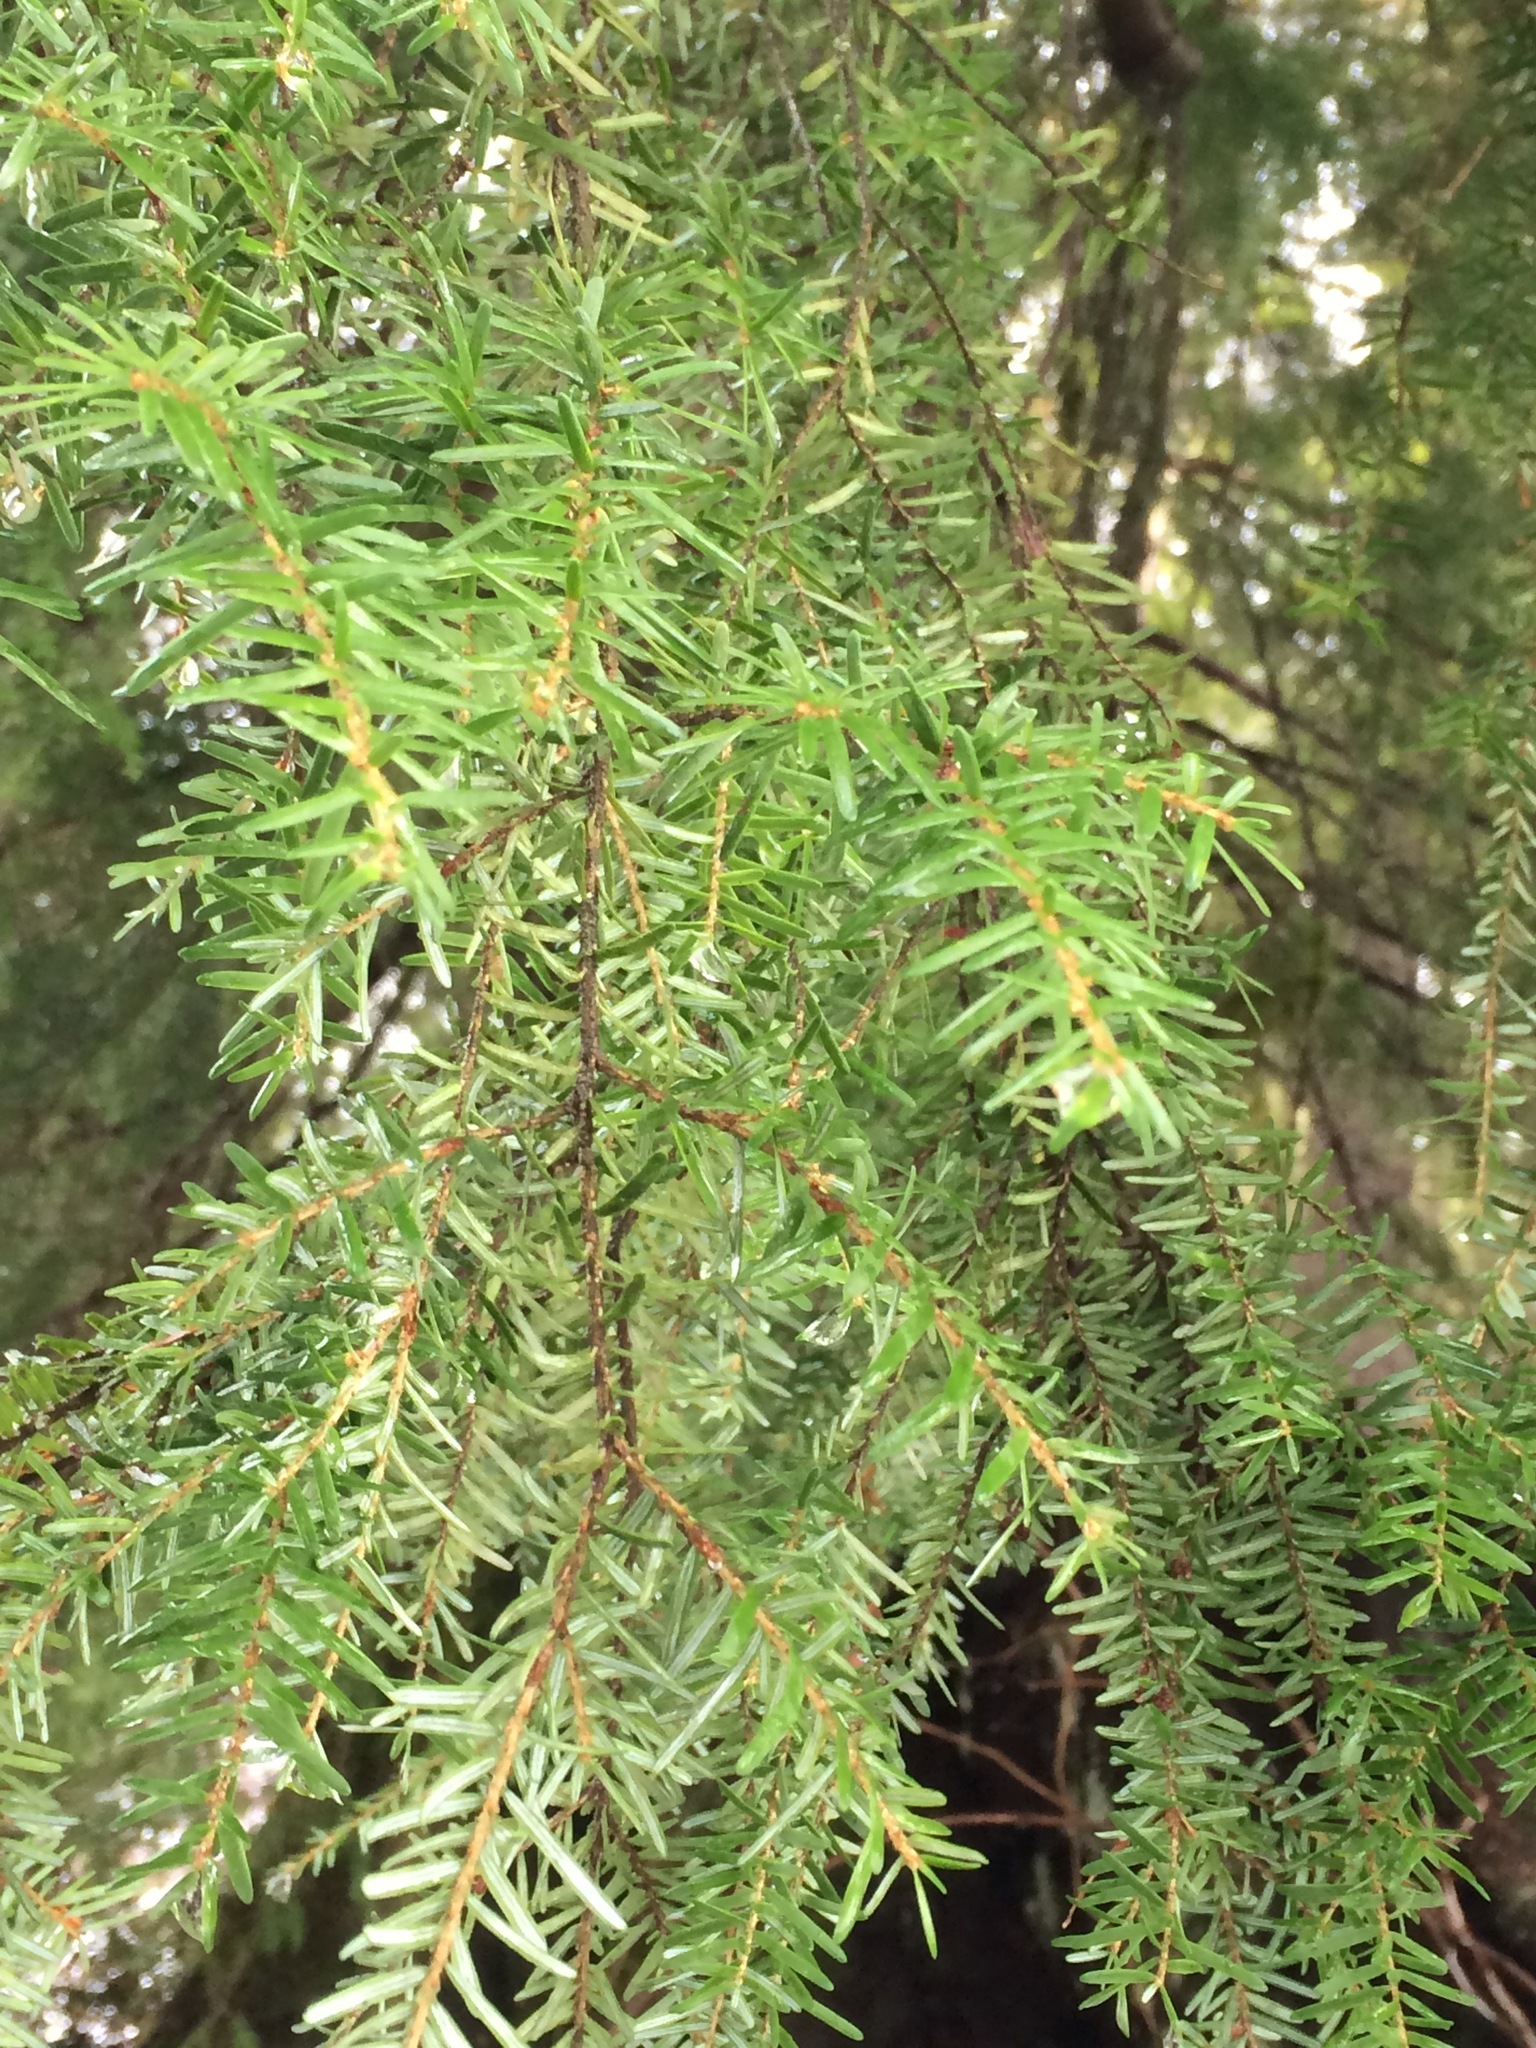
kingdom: Plantae
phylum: Tracheophyta
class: Pinopsida
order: Pinales
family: Pinaceae
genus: Tsuga
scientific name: Tsuga heterophylla
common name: Western hemlock
